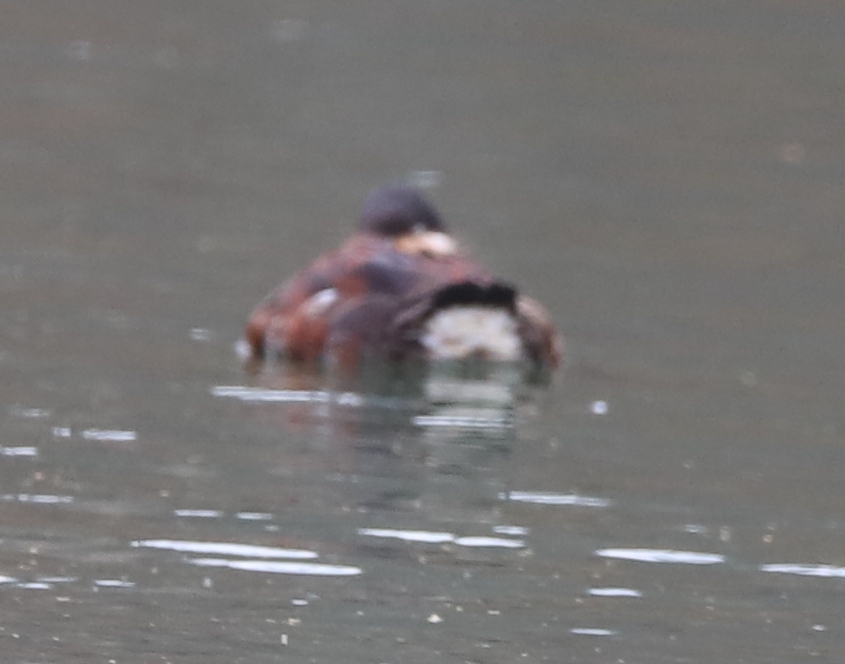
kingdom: Animalia
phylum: Chordata
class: Aves
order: Anseriformes
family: Anatidae
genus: Oxyura
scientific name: Oxyura jamaicensis
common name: Ruddy duck
